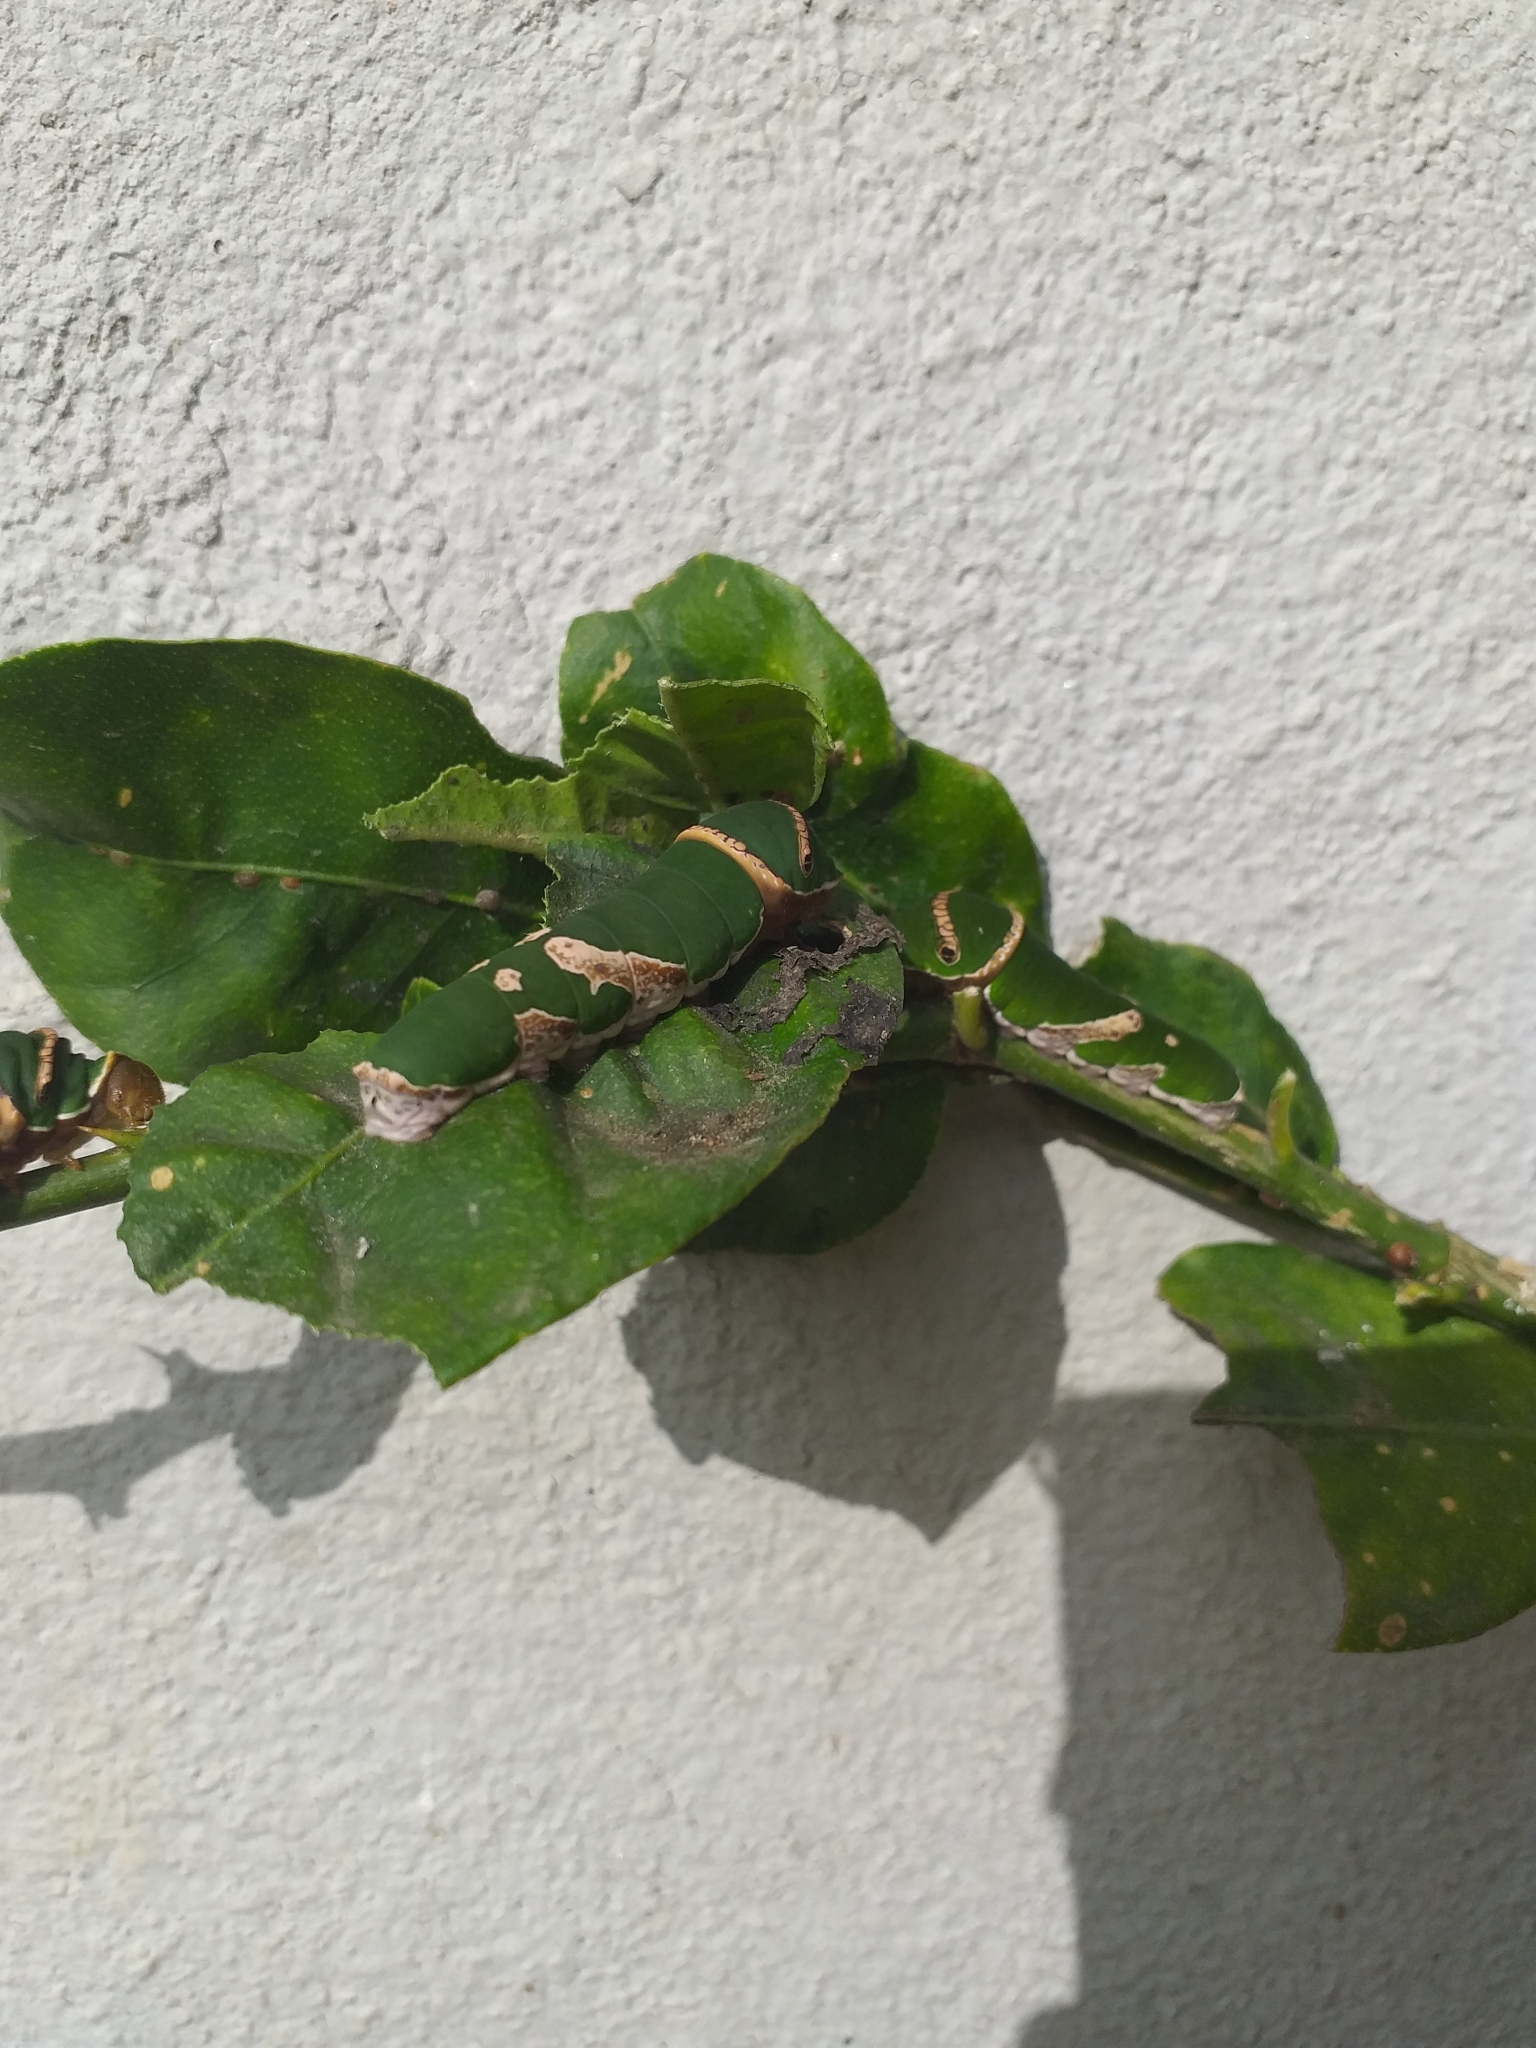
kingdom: Animalia
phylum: Arthropoda
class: Insecta
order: Lepidoptera
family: Papilionidae
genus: Papilio
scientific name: Papilio polytes
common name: Common mormon
